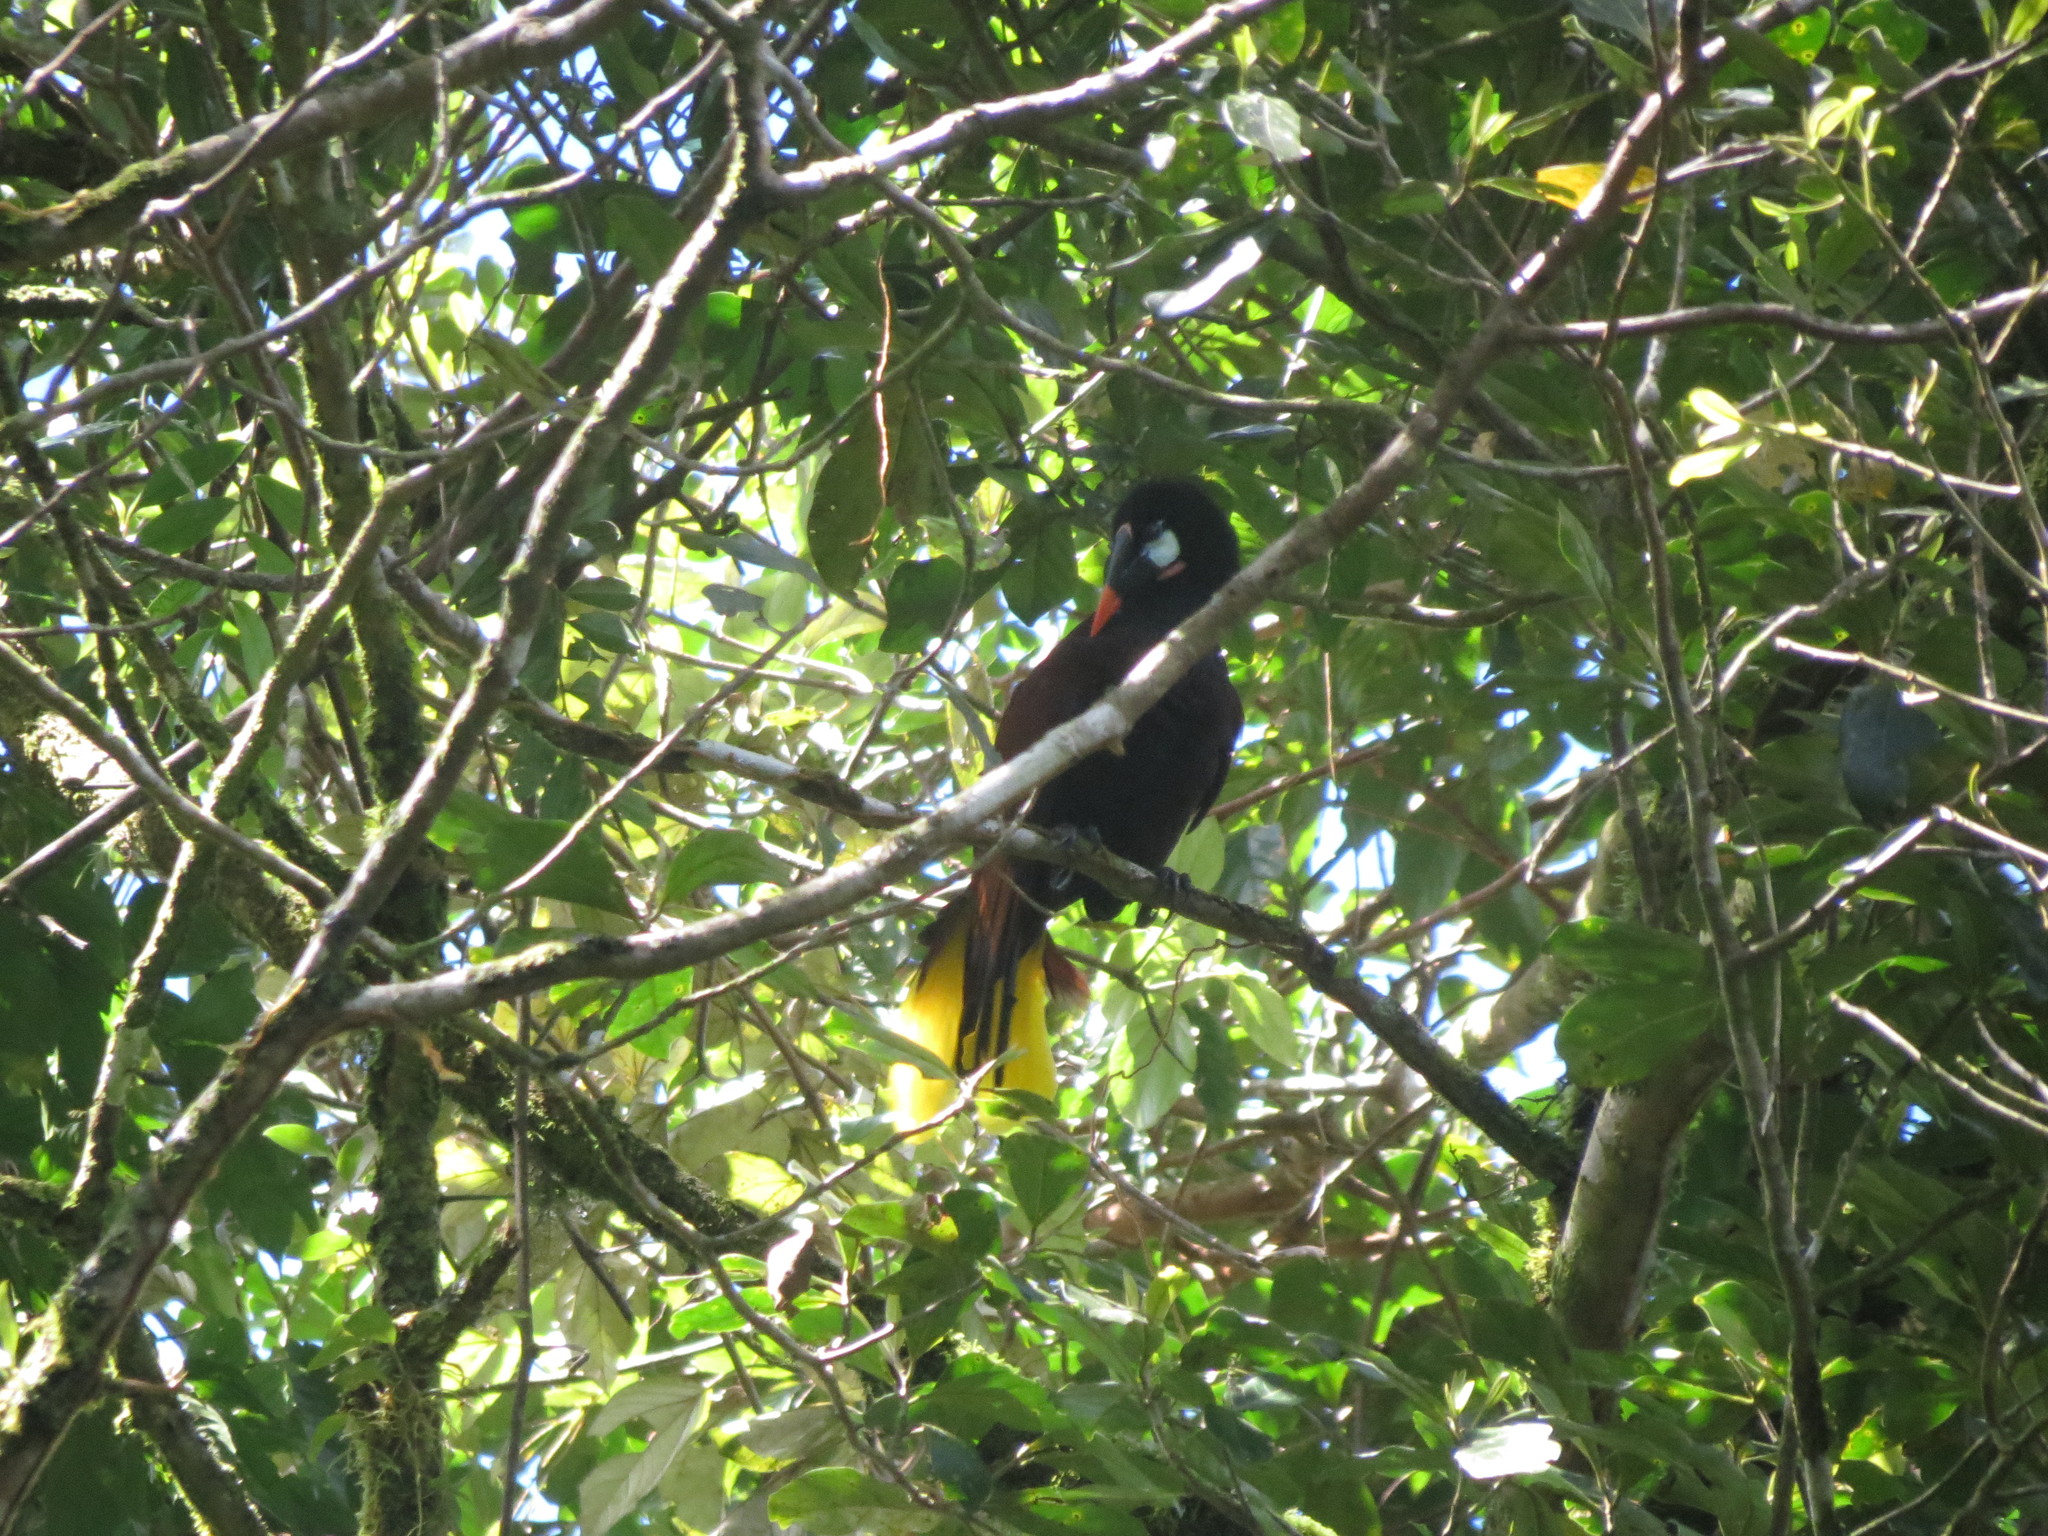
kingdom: Animalia
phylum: Chordata
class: Aves
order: Passeriformes
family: Icteridae
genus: Psarocolius
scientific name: Psarocolius montezuma
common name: Montezuma oropendola
